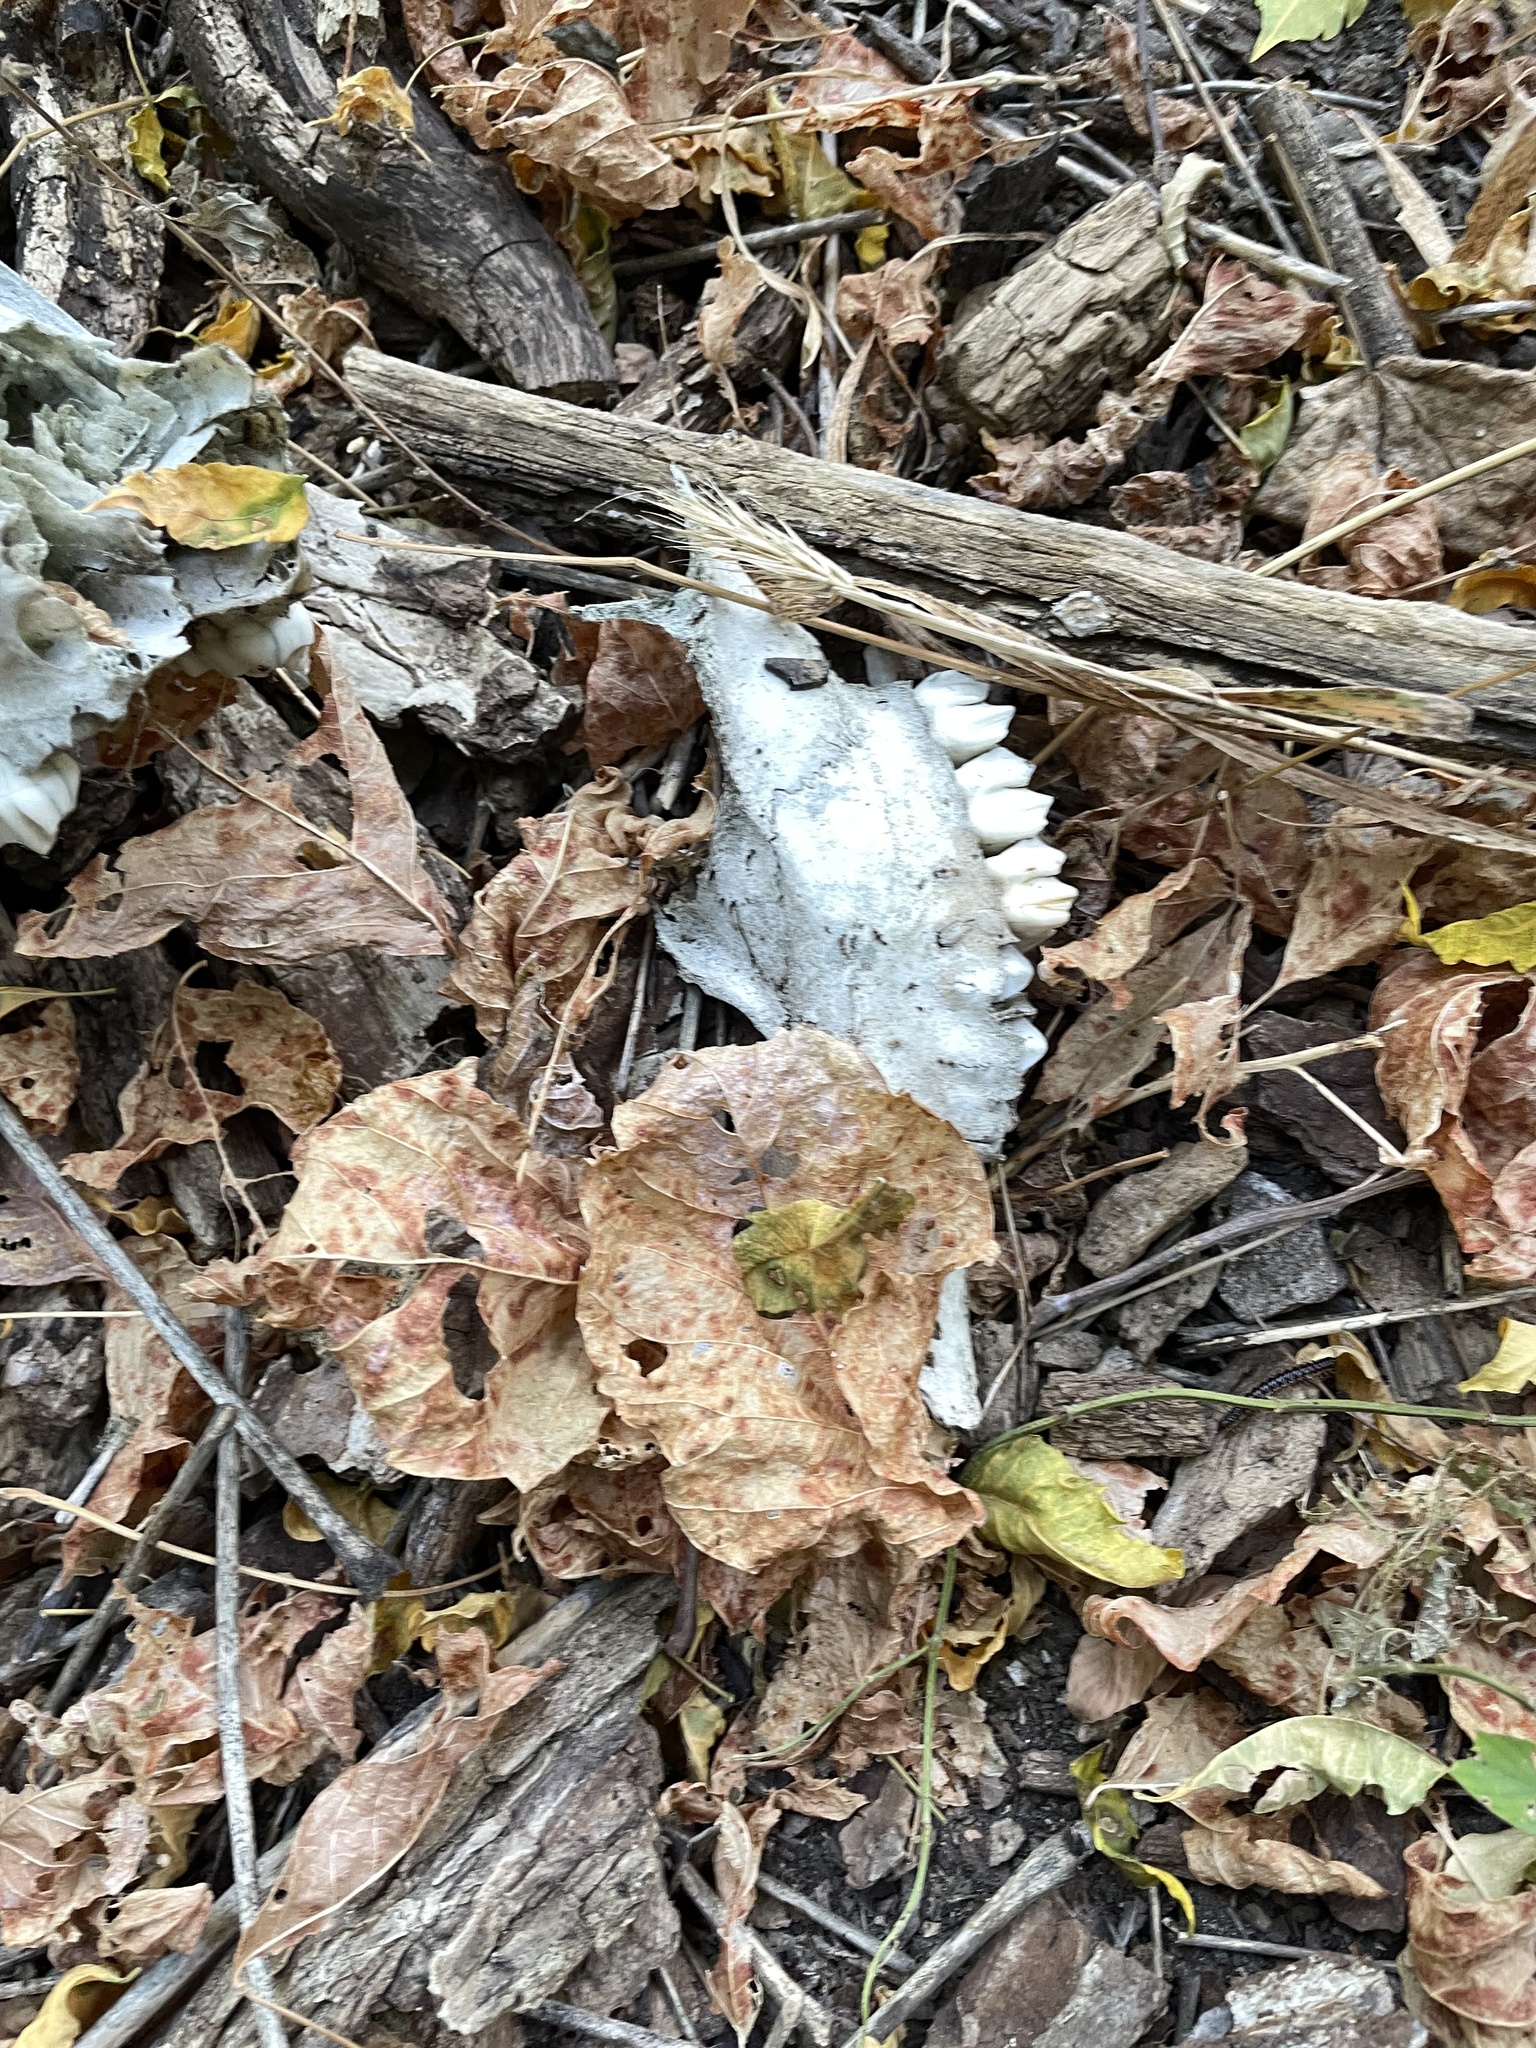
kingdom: Animalia
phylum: Chordata
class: Mammalia
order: Artiodactyla
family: Cervidae
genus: Odocoileus
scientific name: Odocoileus virginianus
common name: White-tailed deer
